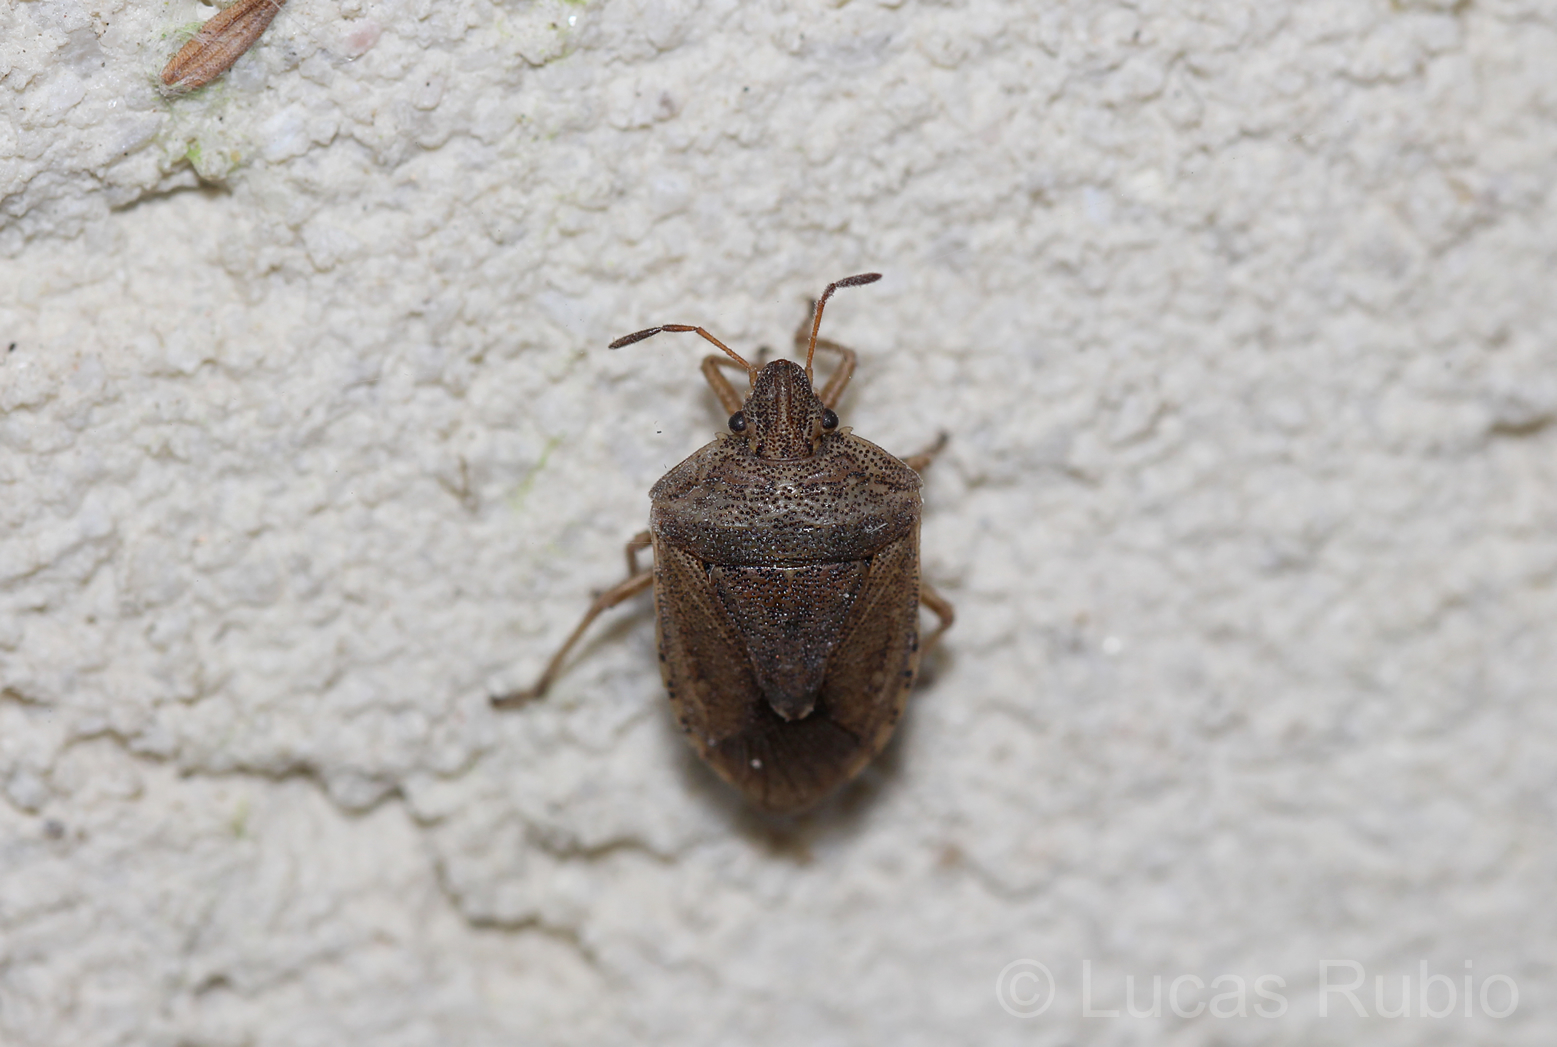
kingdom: Animalia
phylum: Arthropoda
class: Insecta
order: Hemiptera
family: Lophopidae
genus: Oenopiella
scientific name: Oenopiella punctaria
